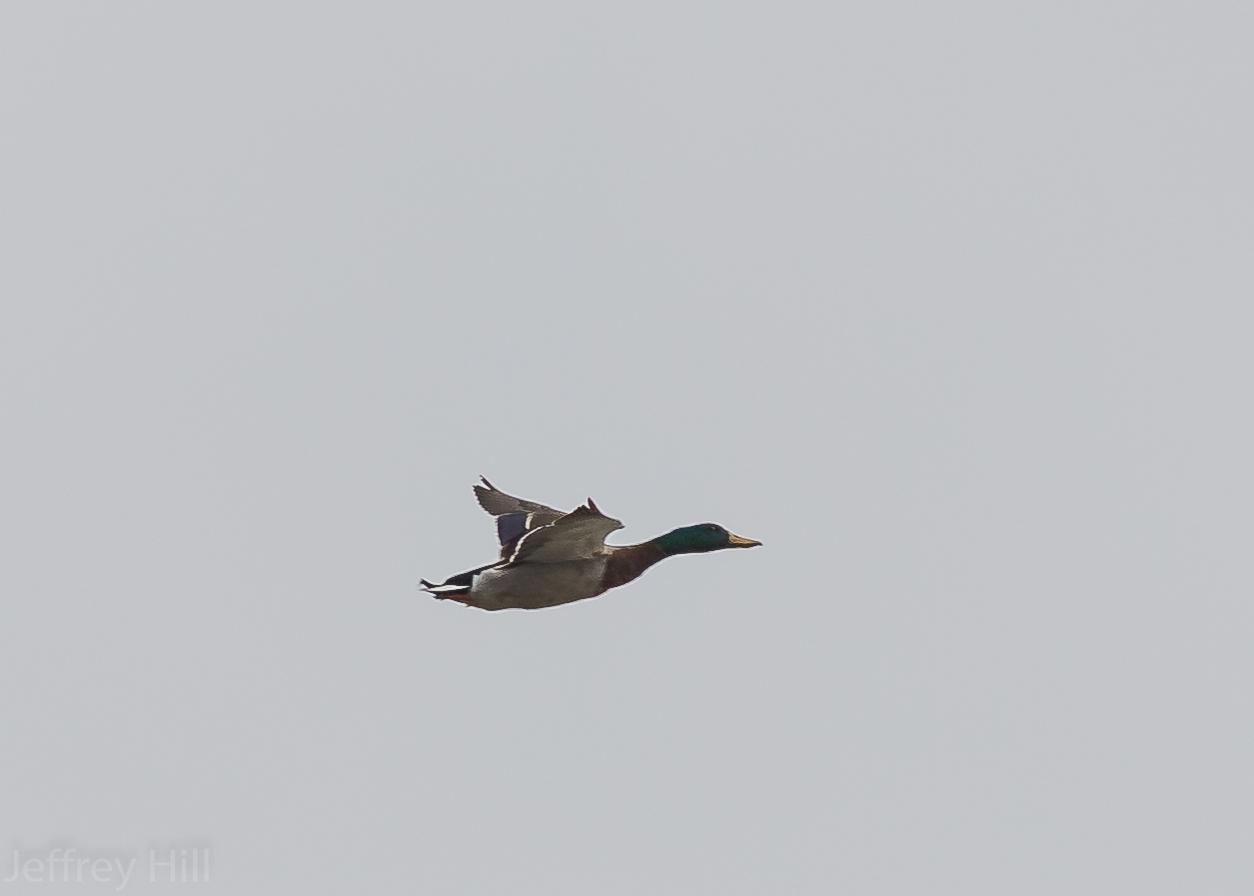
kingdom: Animalia
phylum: Chordata
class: Aves
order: Anseriformes
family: Anatidae
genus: Anas
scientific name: Anas platyrhynchos
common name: Mallard
